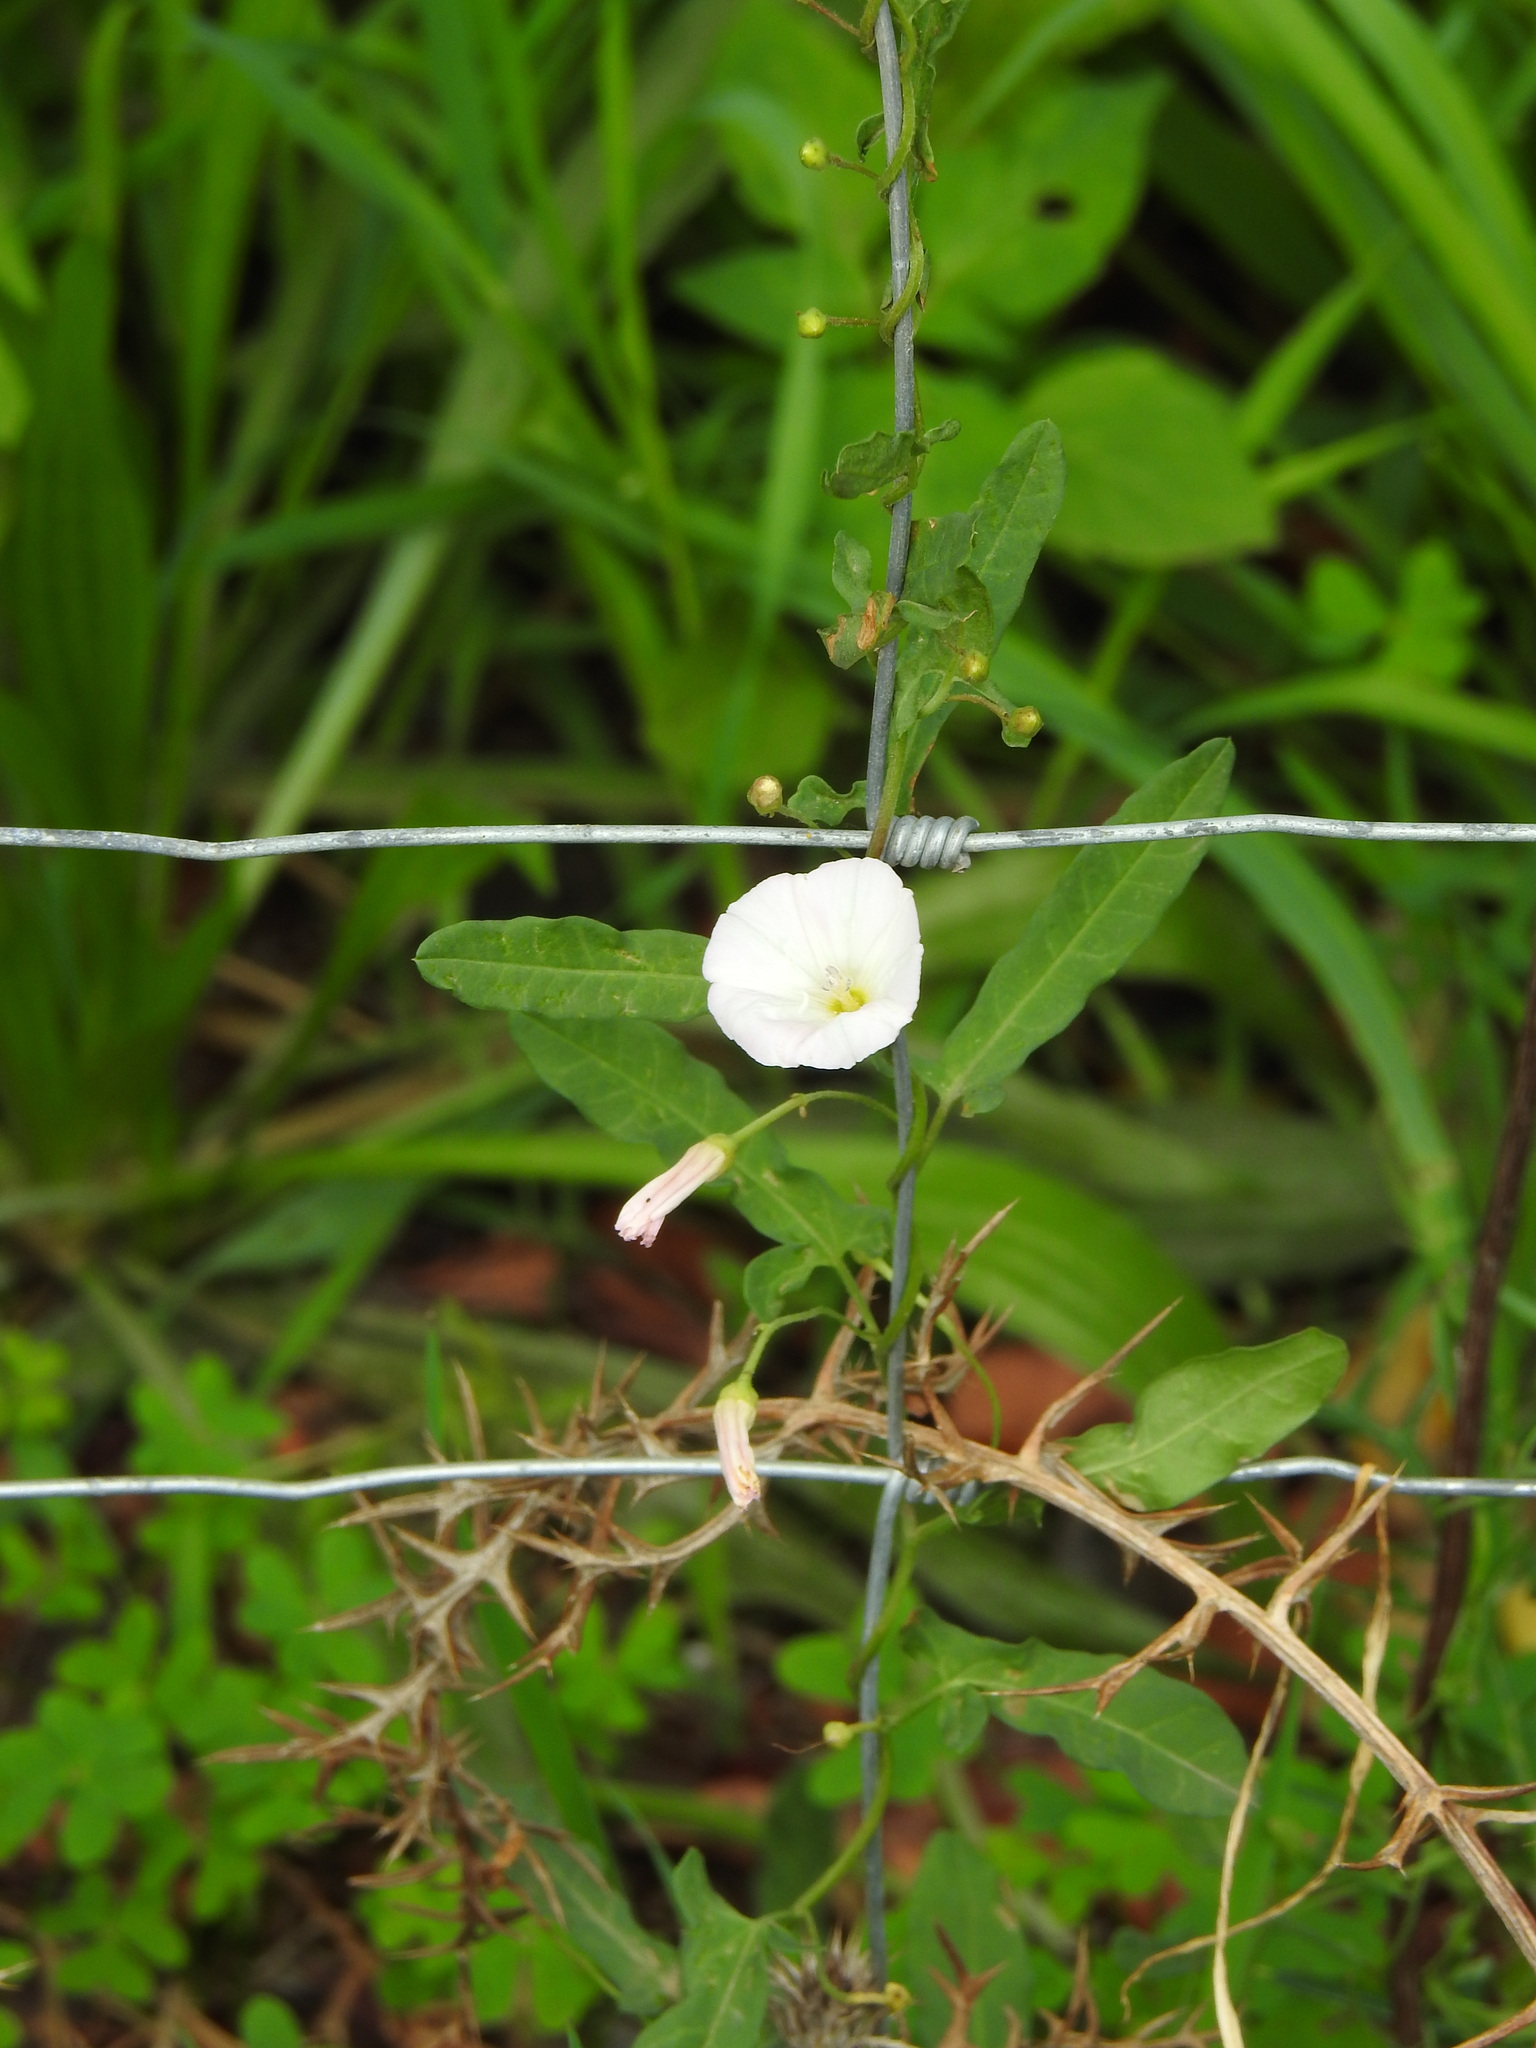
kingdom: Plantae
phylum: Tracheophyta
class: Magnoliopsida
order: Solanales
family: Convolvulaceae
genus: Convolvulus
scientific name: Convolvulus arvensis
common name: Field bindweed
